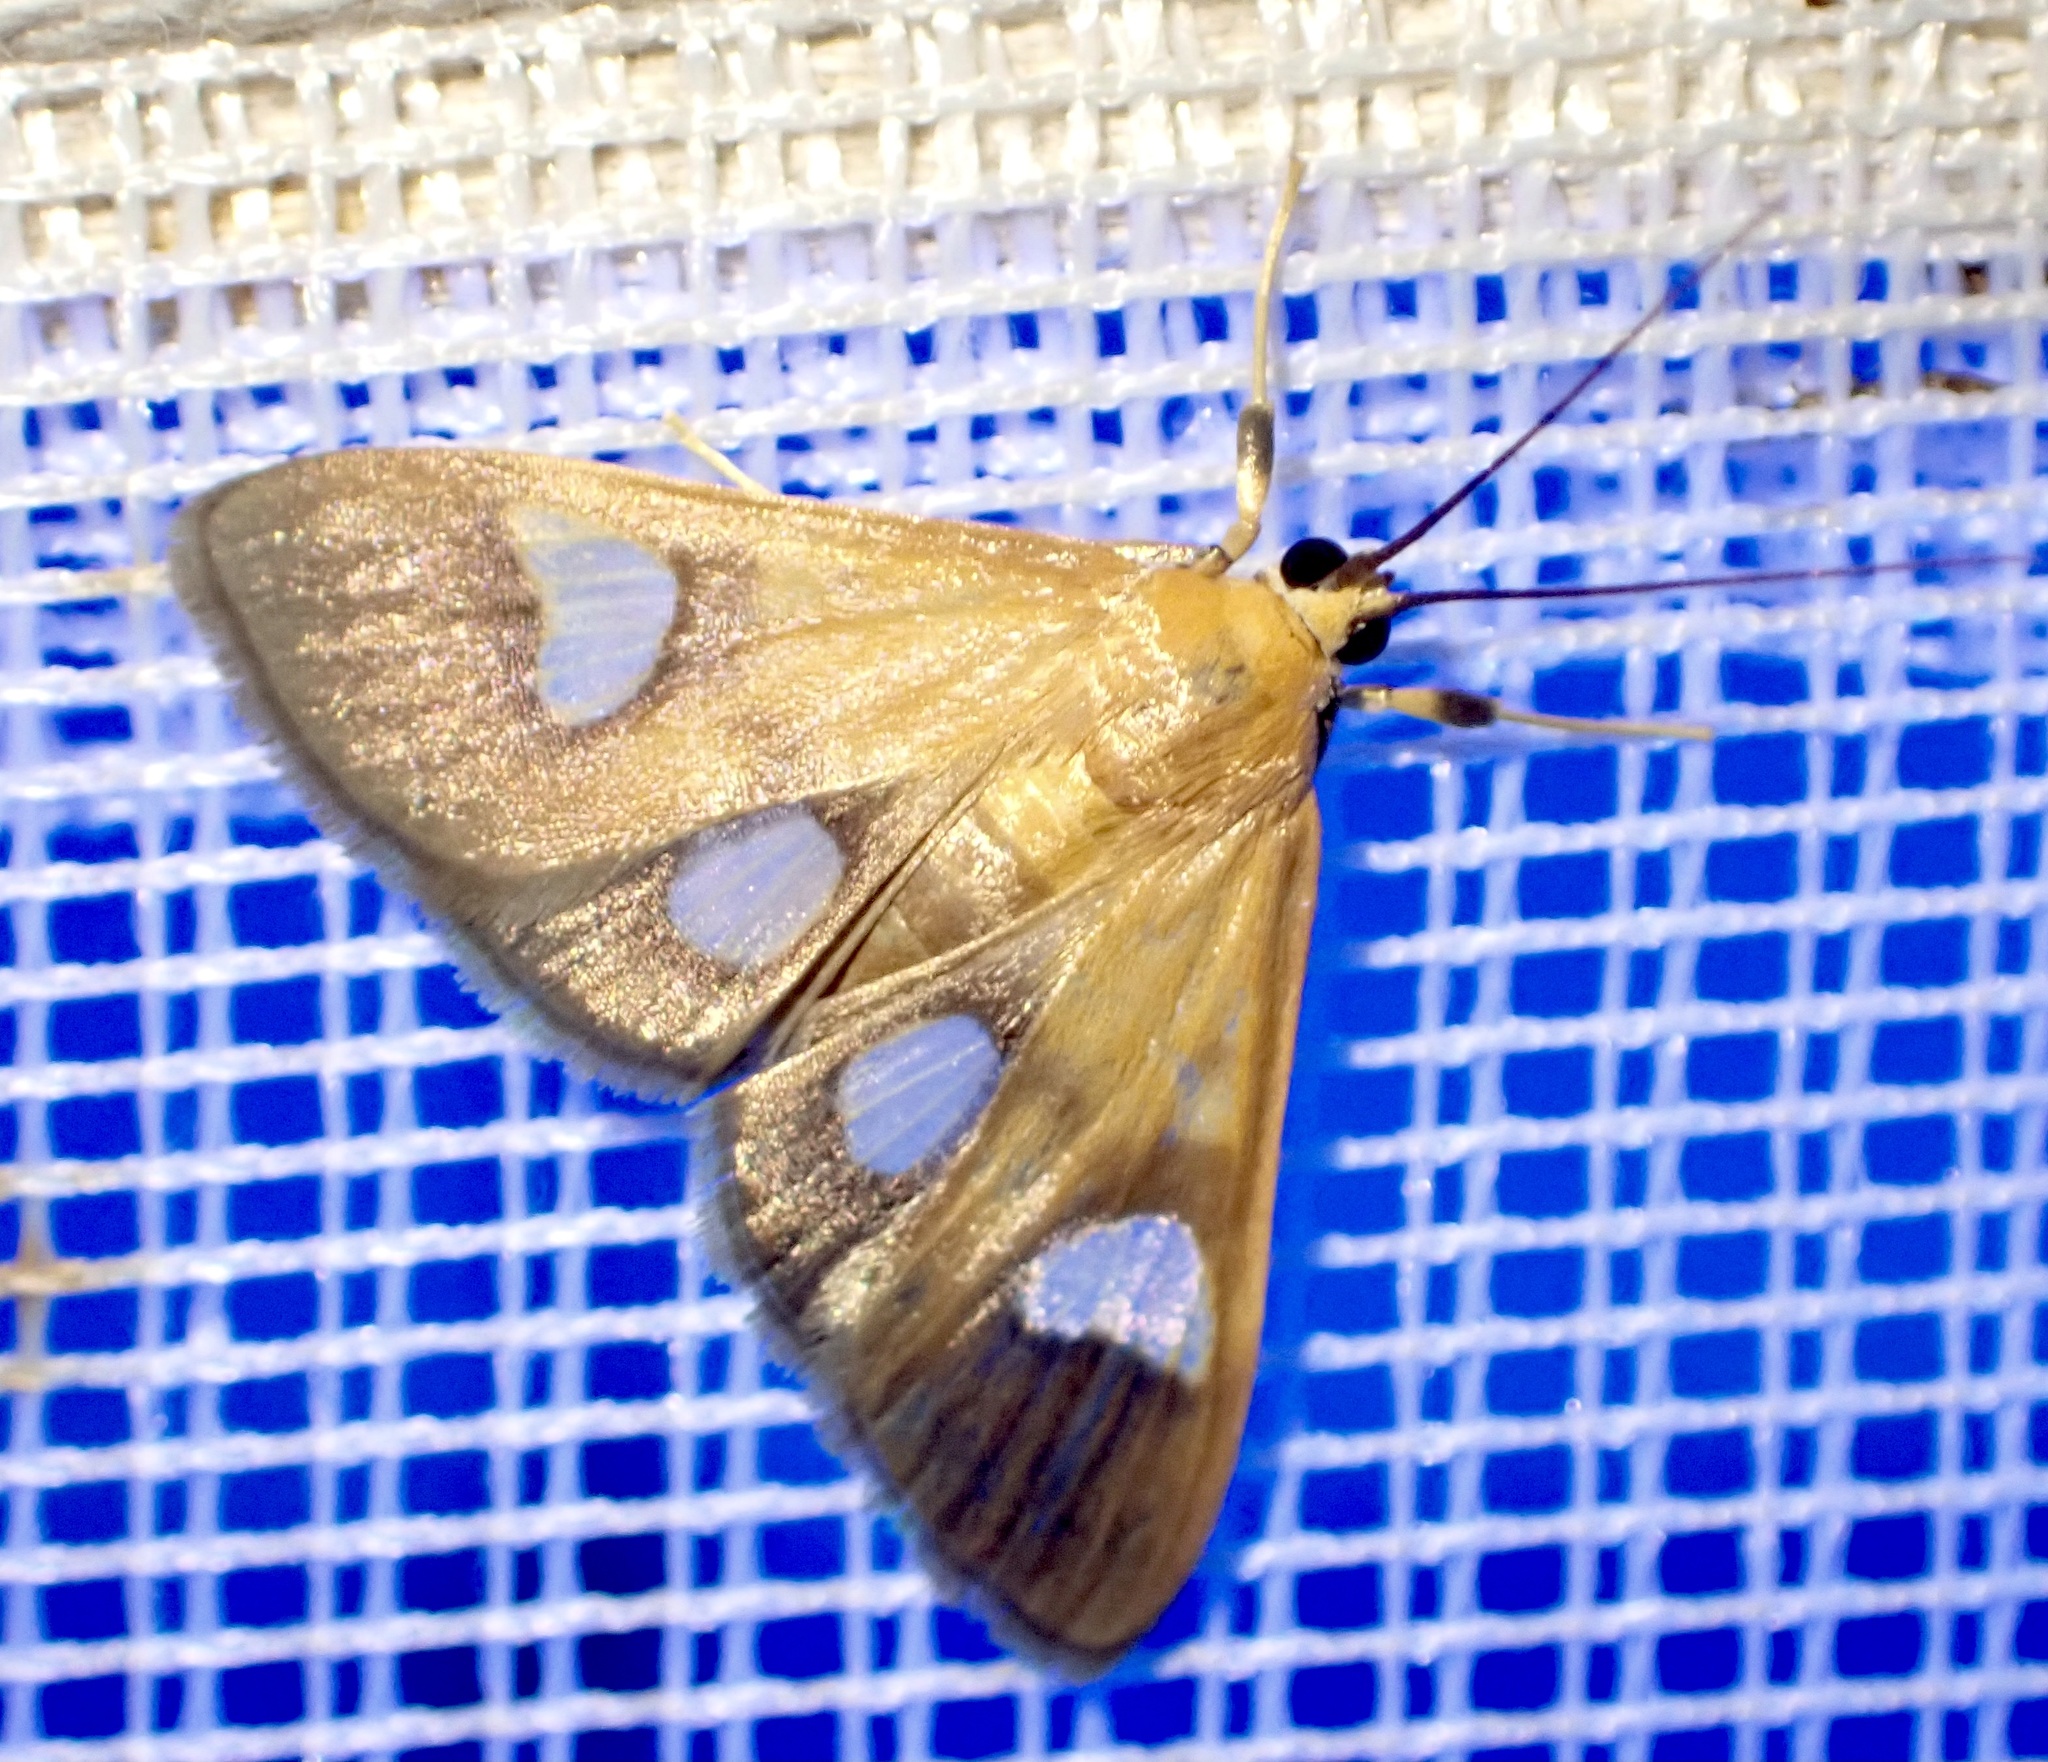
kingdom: Animalia
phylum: Arthropoda
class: Insecta
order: Lepidoptera
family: Crambidae
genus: Ulopeza
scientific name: Ulopeza flavicepsalis
